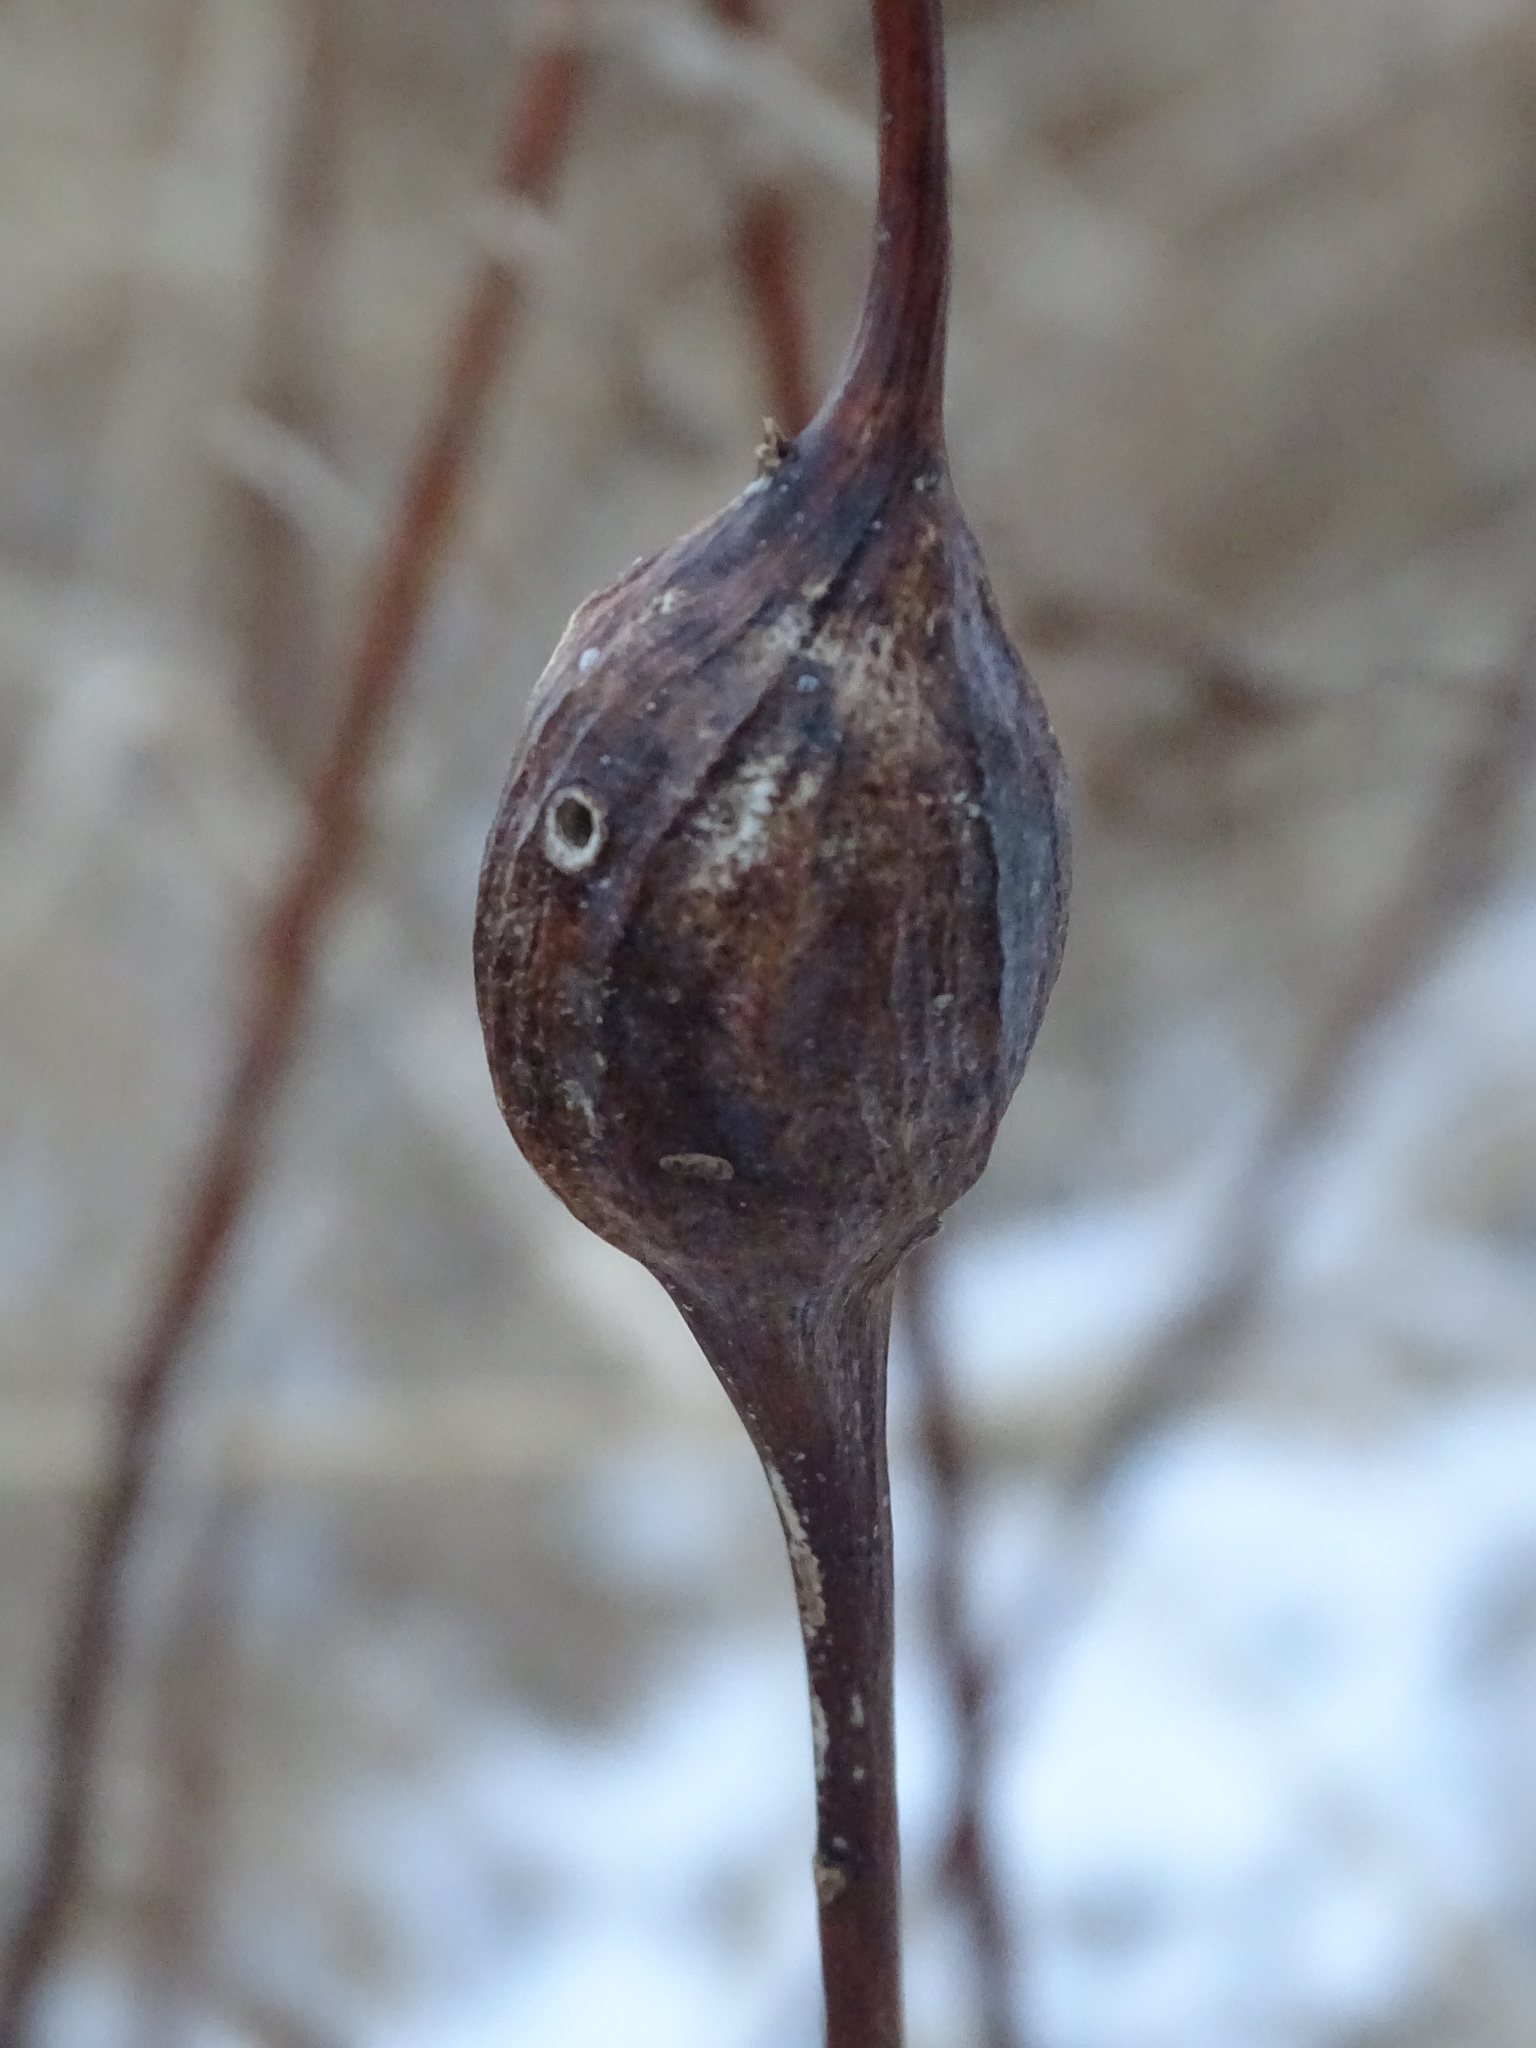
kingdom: Animalia
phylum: Arthropoda
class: Insecta
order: Diptera
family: Tephritidae
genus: Eurosta
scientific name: Eurosta solidaginis
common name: Goldenrod gall fly
